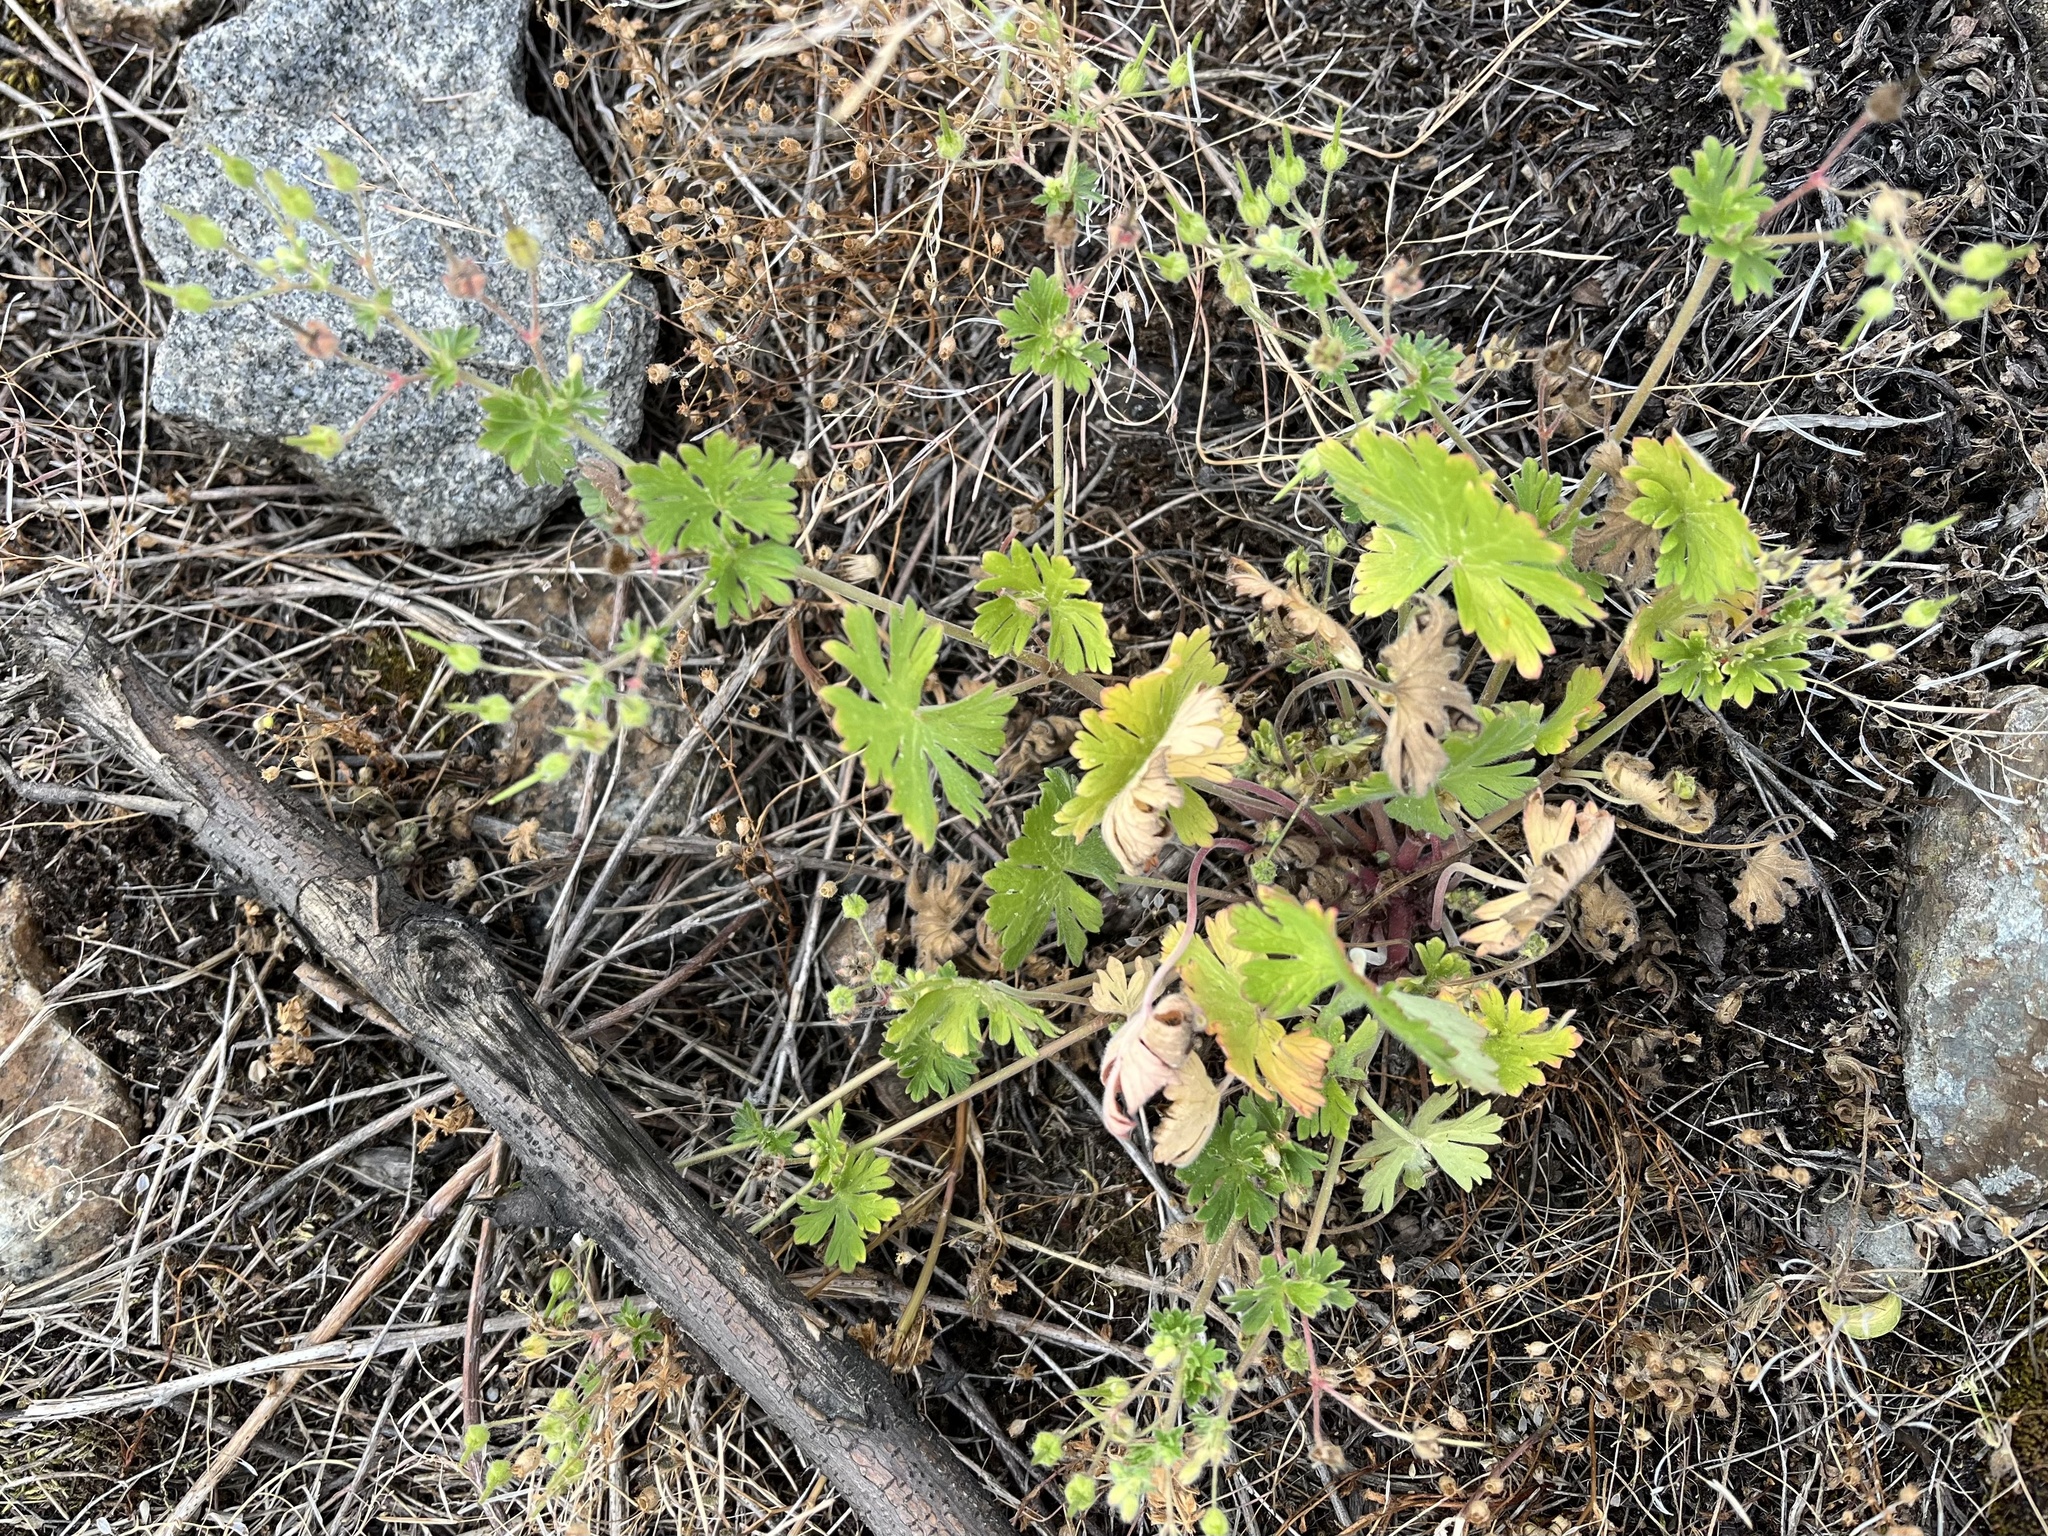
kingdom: Plantae
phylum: Tracheophyta
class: Magnoliopsida
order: Geraniales
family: Geraniaceae
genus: Geranium
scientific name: Geranium pusillum
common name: Small geranium
